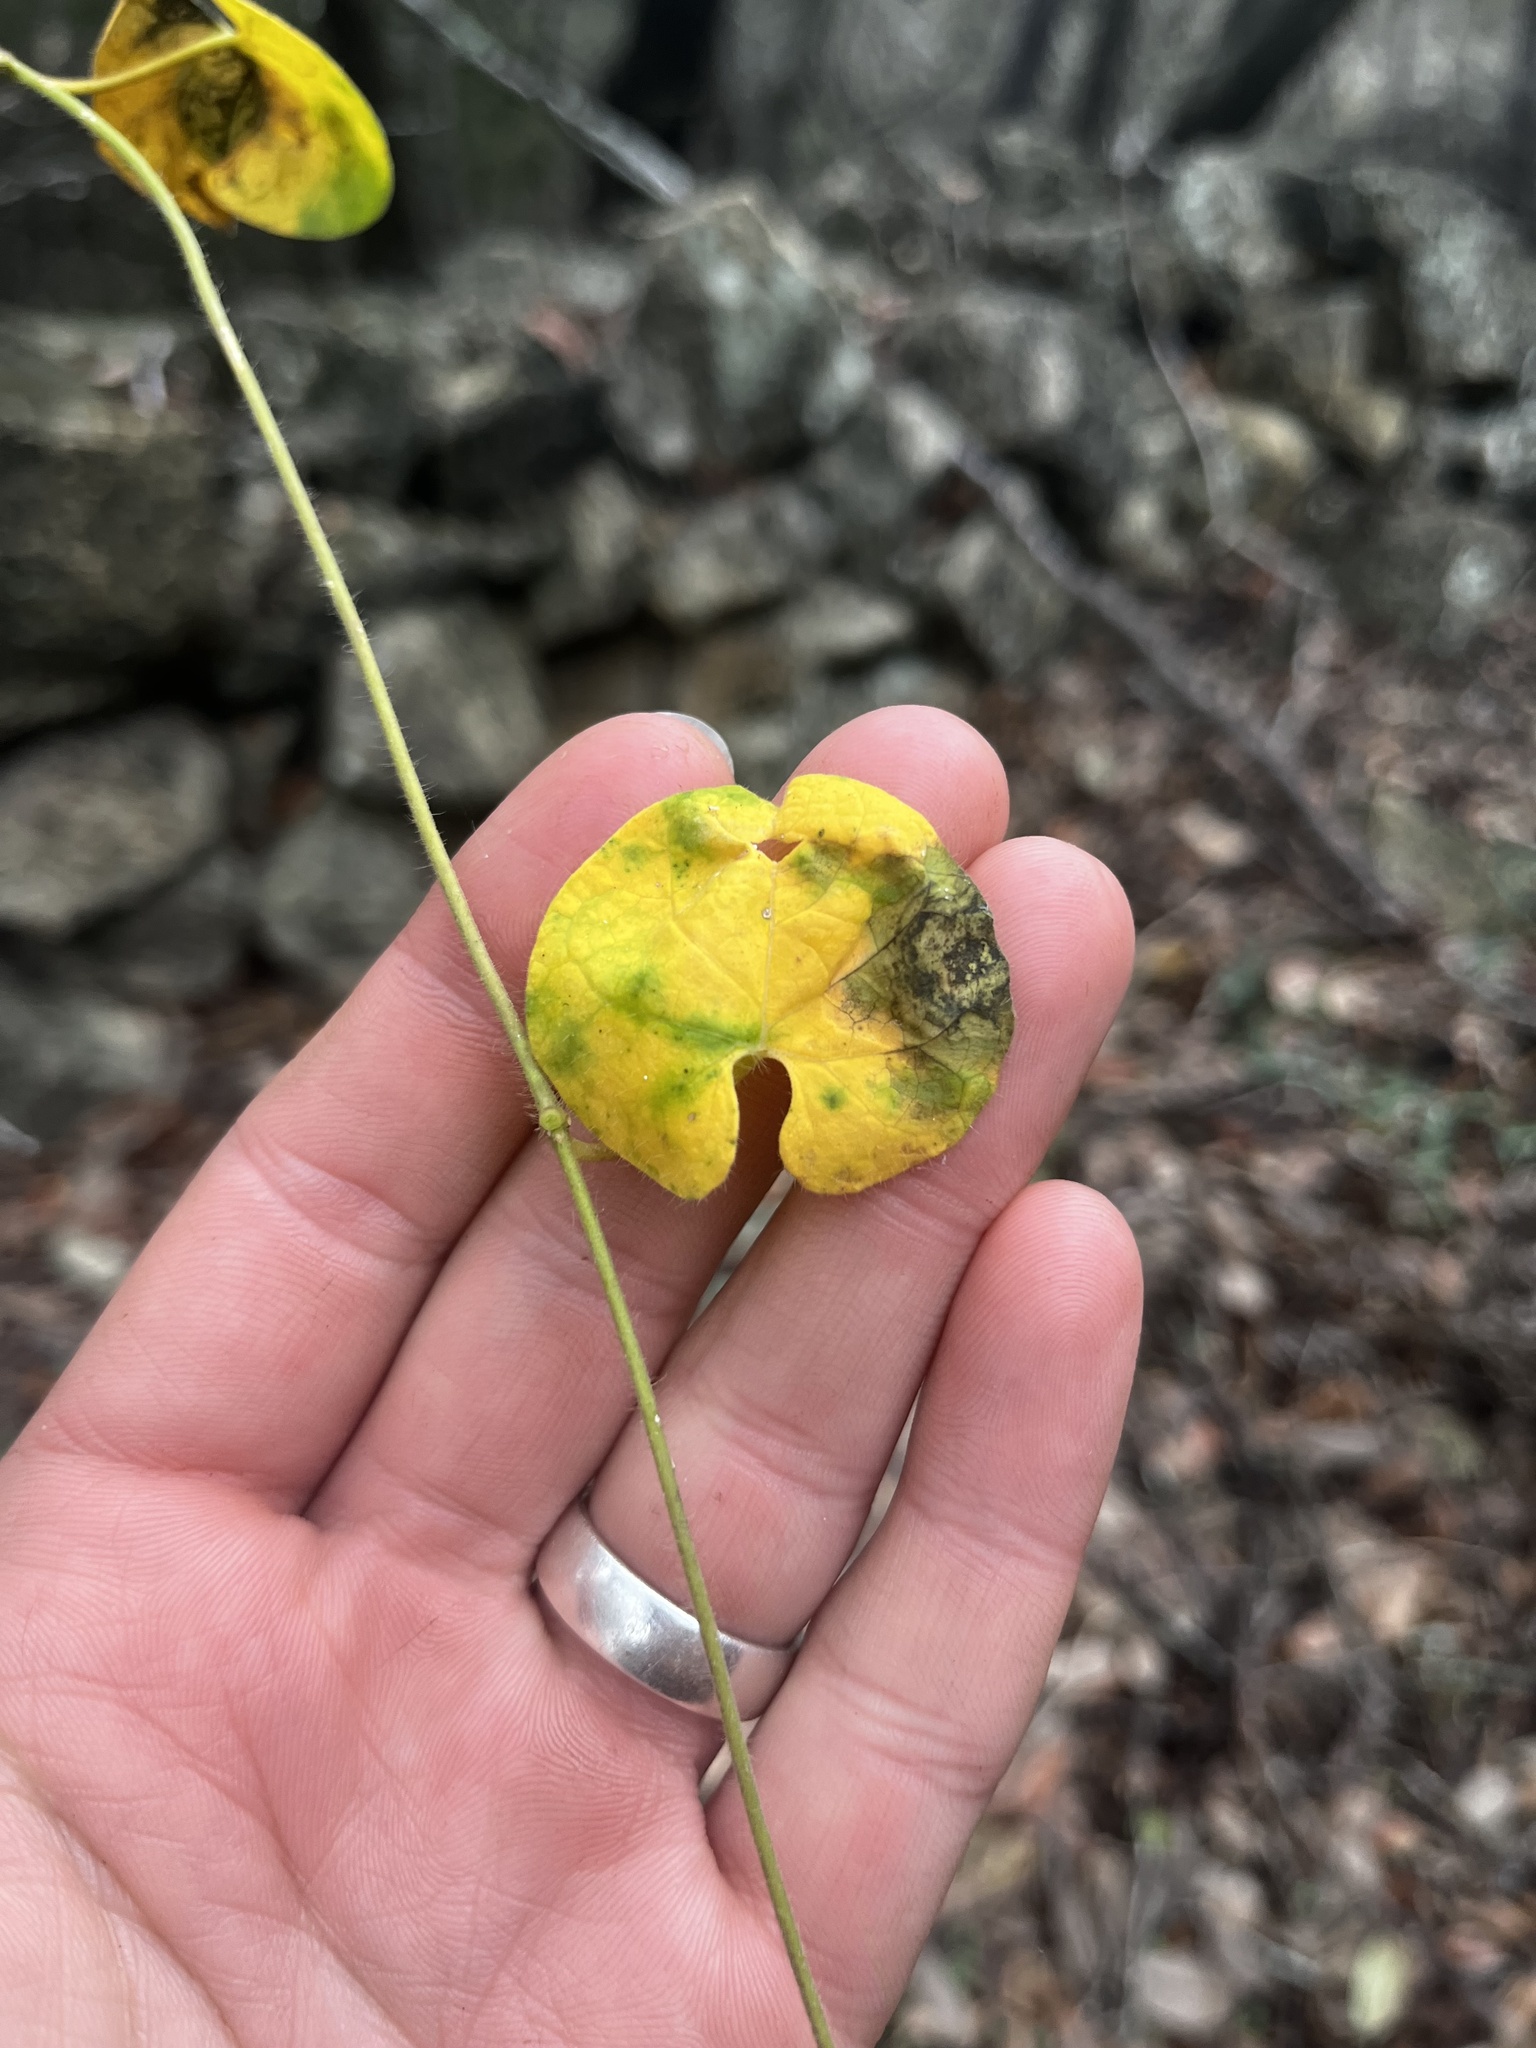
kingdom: Plantae
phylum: Tracheophyta
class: Magnoliopsida
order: Gentianales
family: Apocynaceae
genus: Dictyanthus
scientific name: Dictyanthus reticulatus
